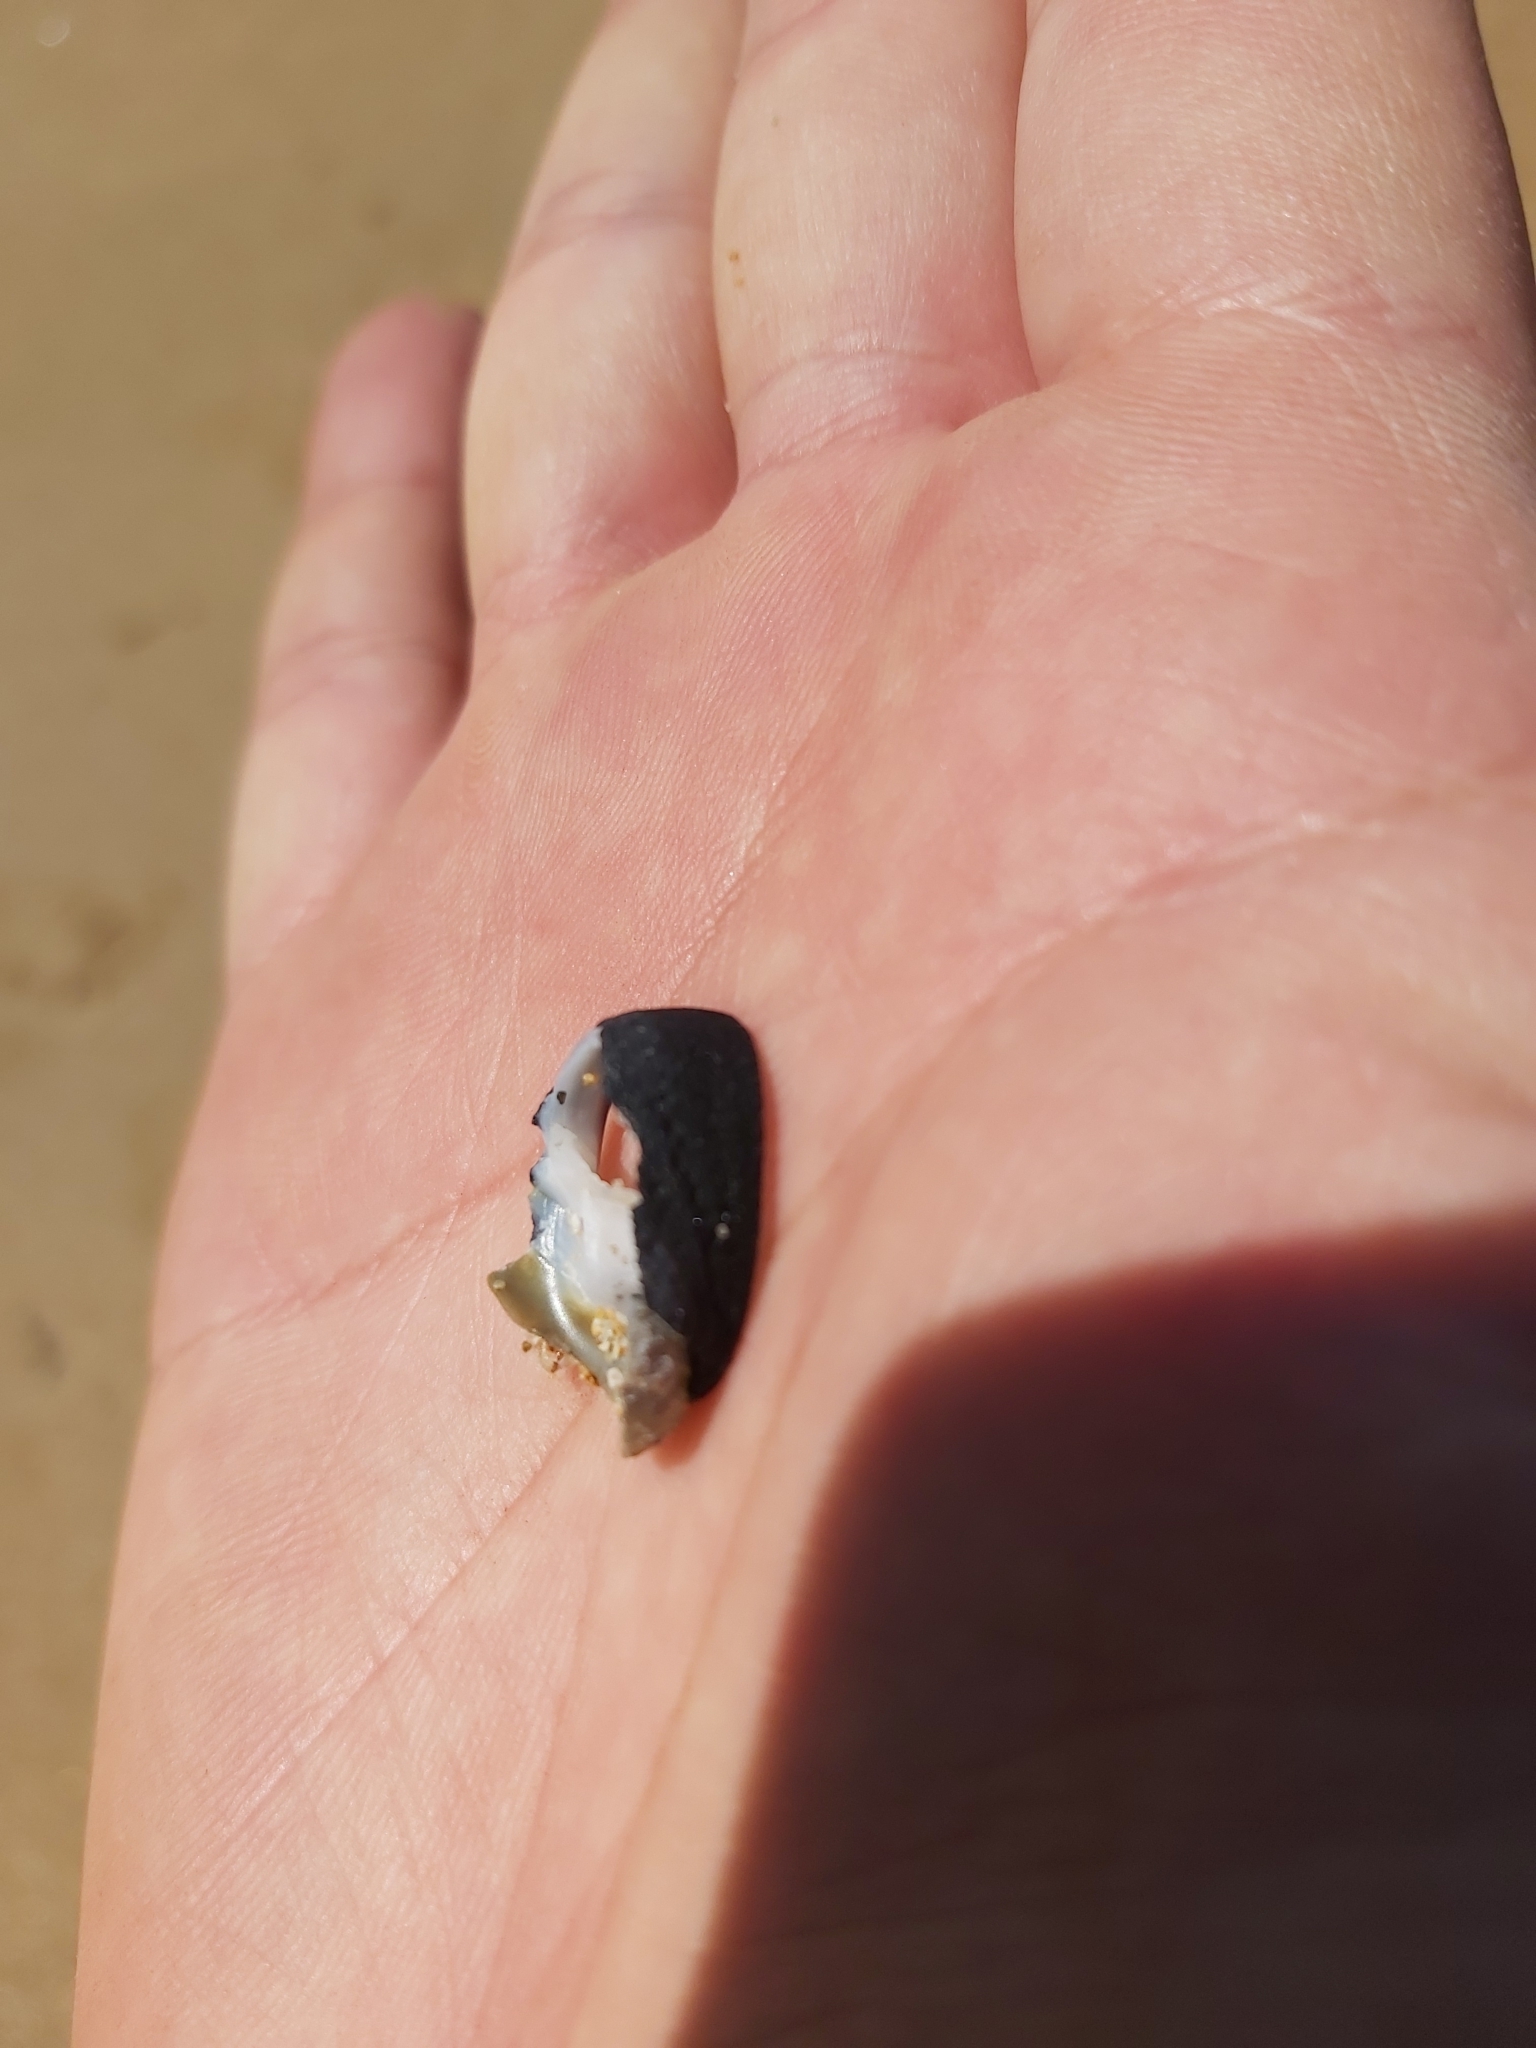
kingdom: Animalia
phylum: Mollusca
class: Gastropoda
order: Cycloneritida
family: Neritidae
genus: Nerita
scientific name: Nerita melanotragus
